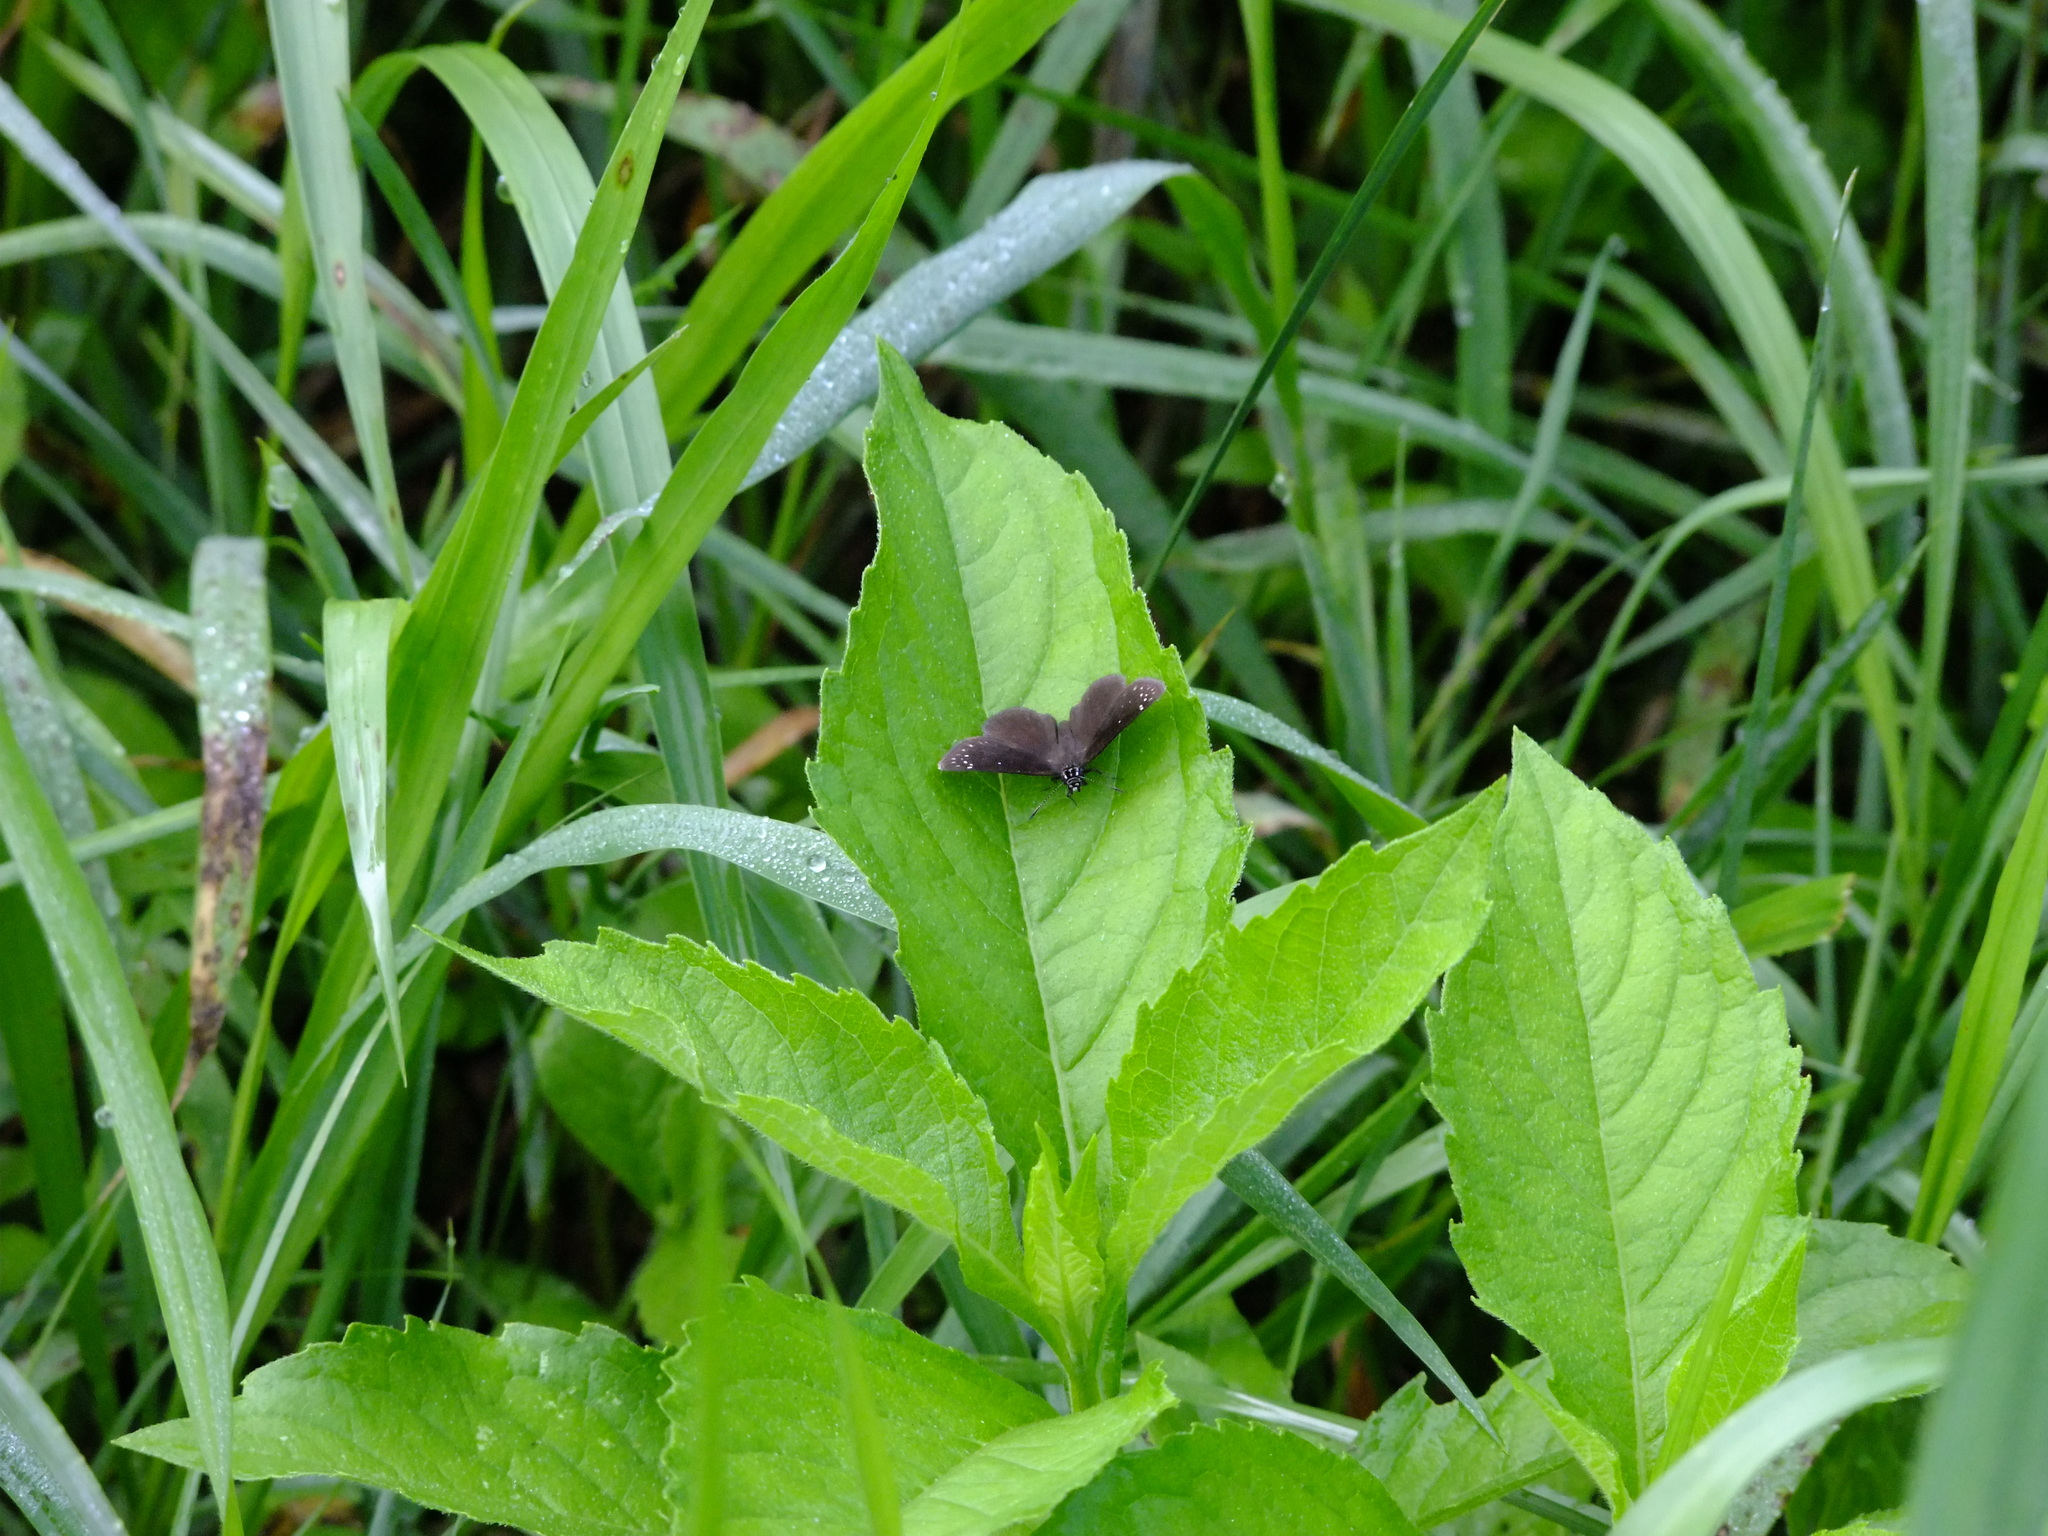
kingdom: Animalia
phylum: Arthropoda
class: Insecta
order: Lepidoptera
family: Hesperiidae
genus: Pholisora
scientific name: Pholisora catullus
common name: Common sootywing
